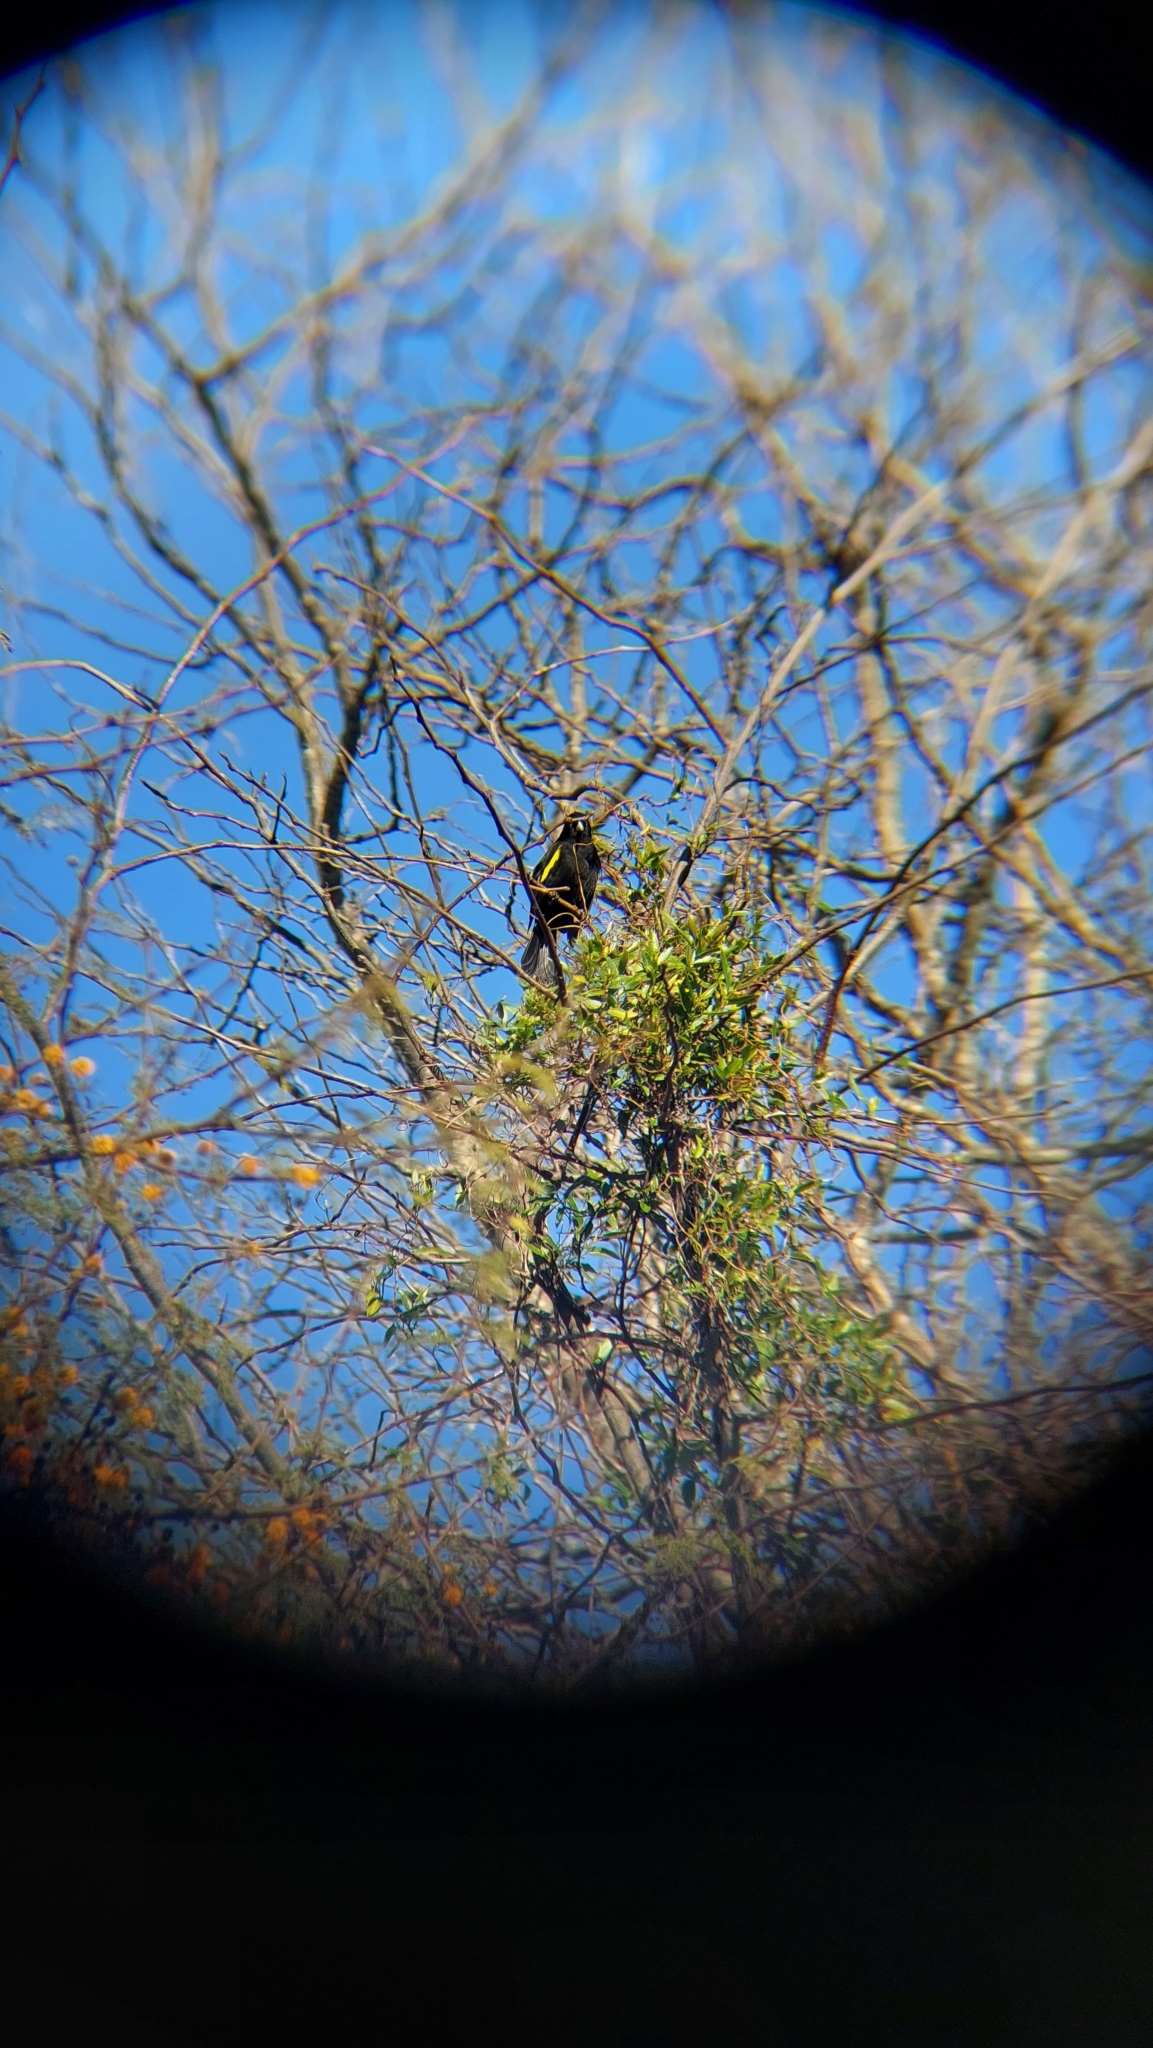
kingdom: Animalia
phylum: Chordata
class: Aves
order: Passeriformes
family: Icteridae
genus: Cacicus
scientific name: Cacicus chrysopterus
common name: Golden-winged cacique
